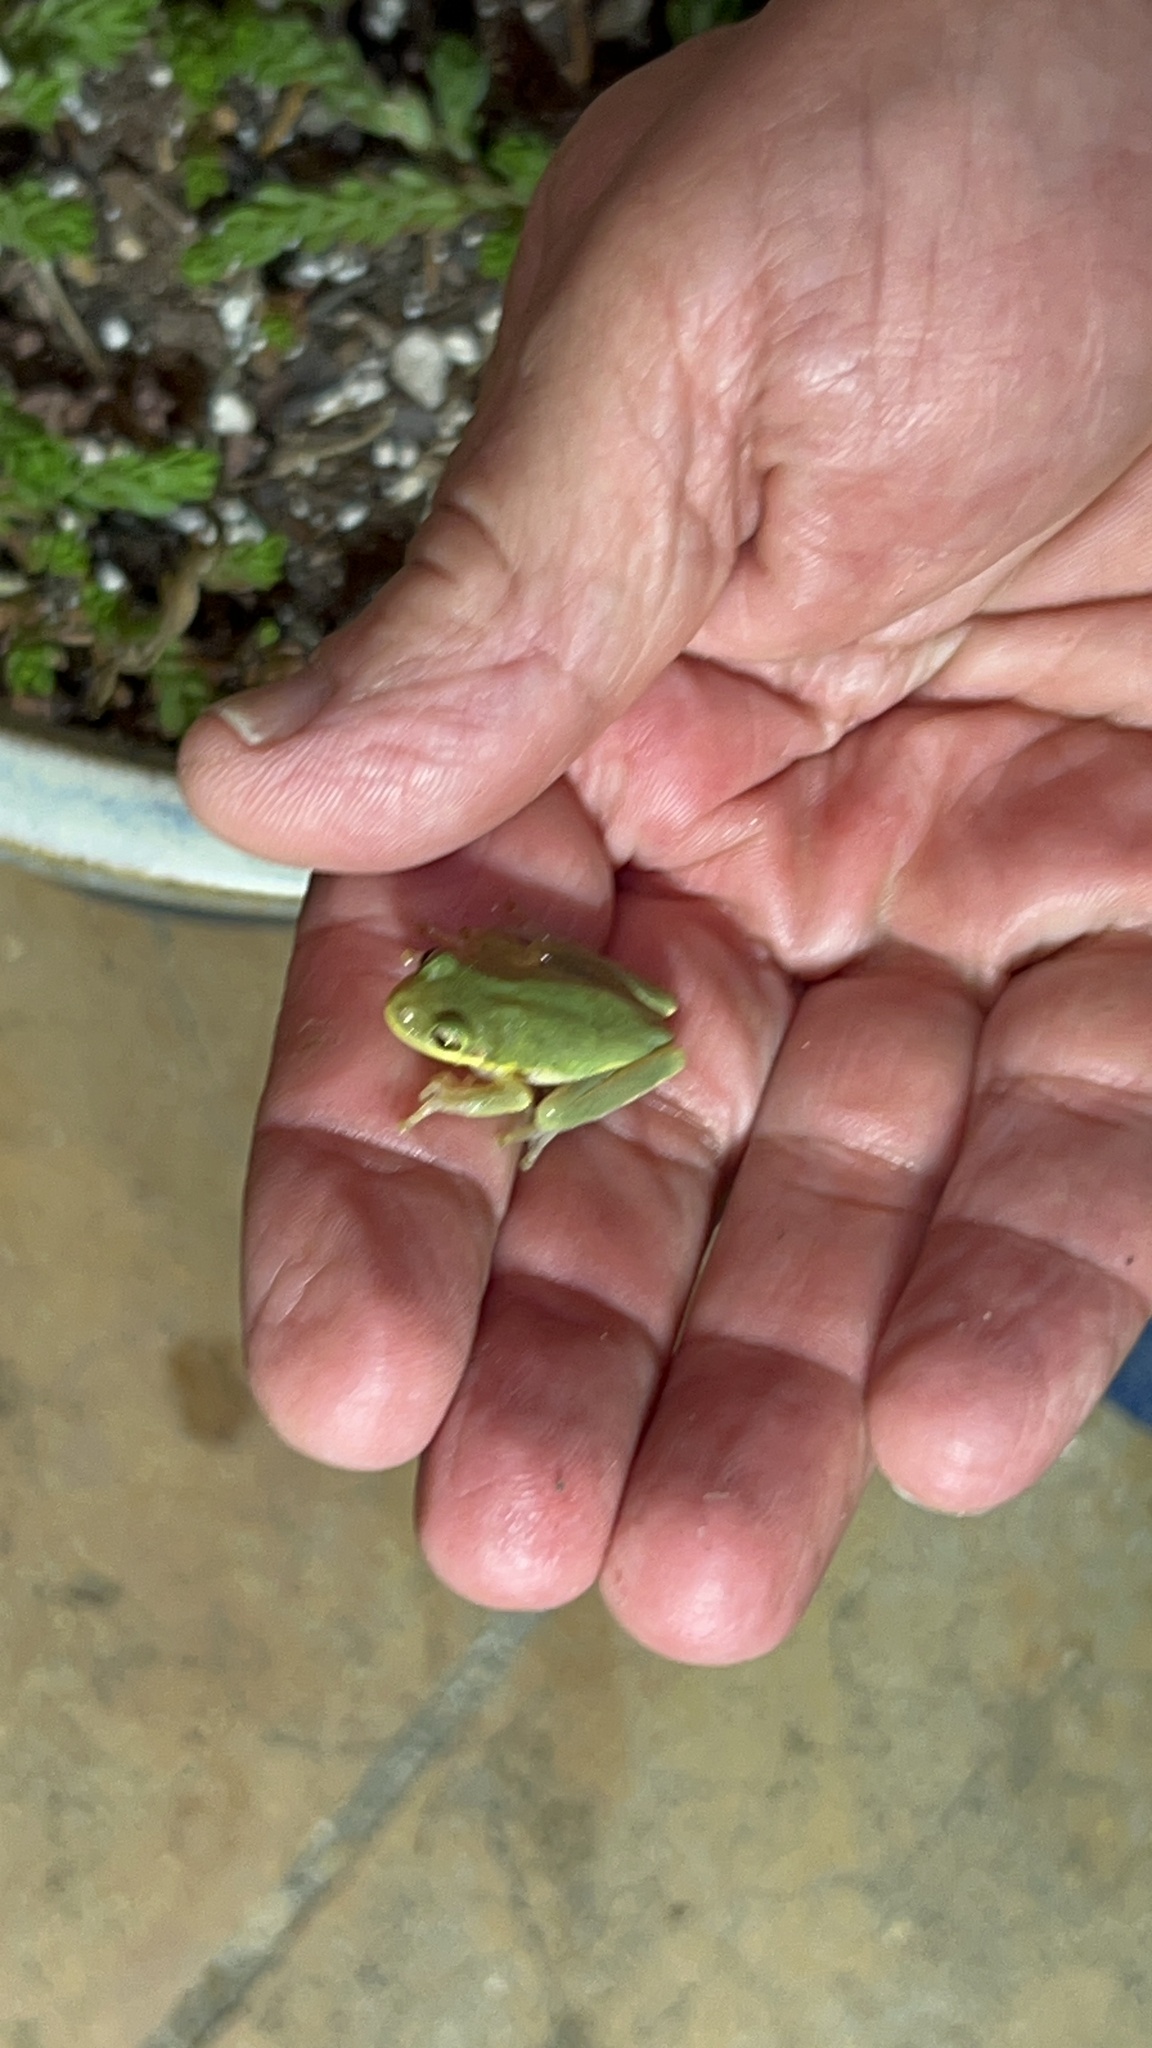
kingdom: Animalia
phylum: Chordata
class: Amphibia
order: Anura
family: Hylidae
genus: Dryophytes
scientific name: Dryophytes squirellus
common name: Squirrel treefrog
